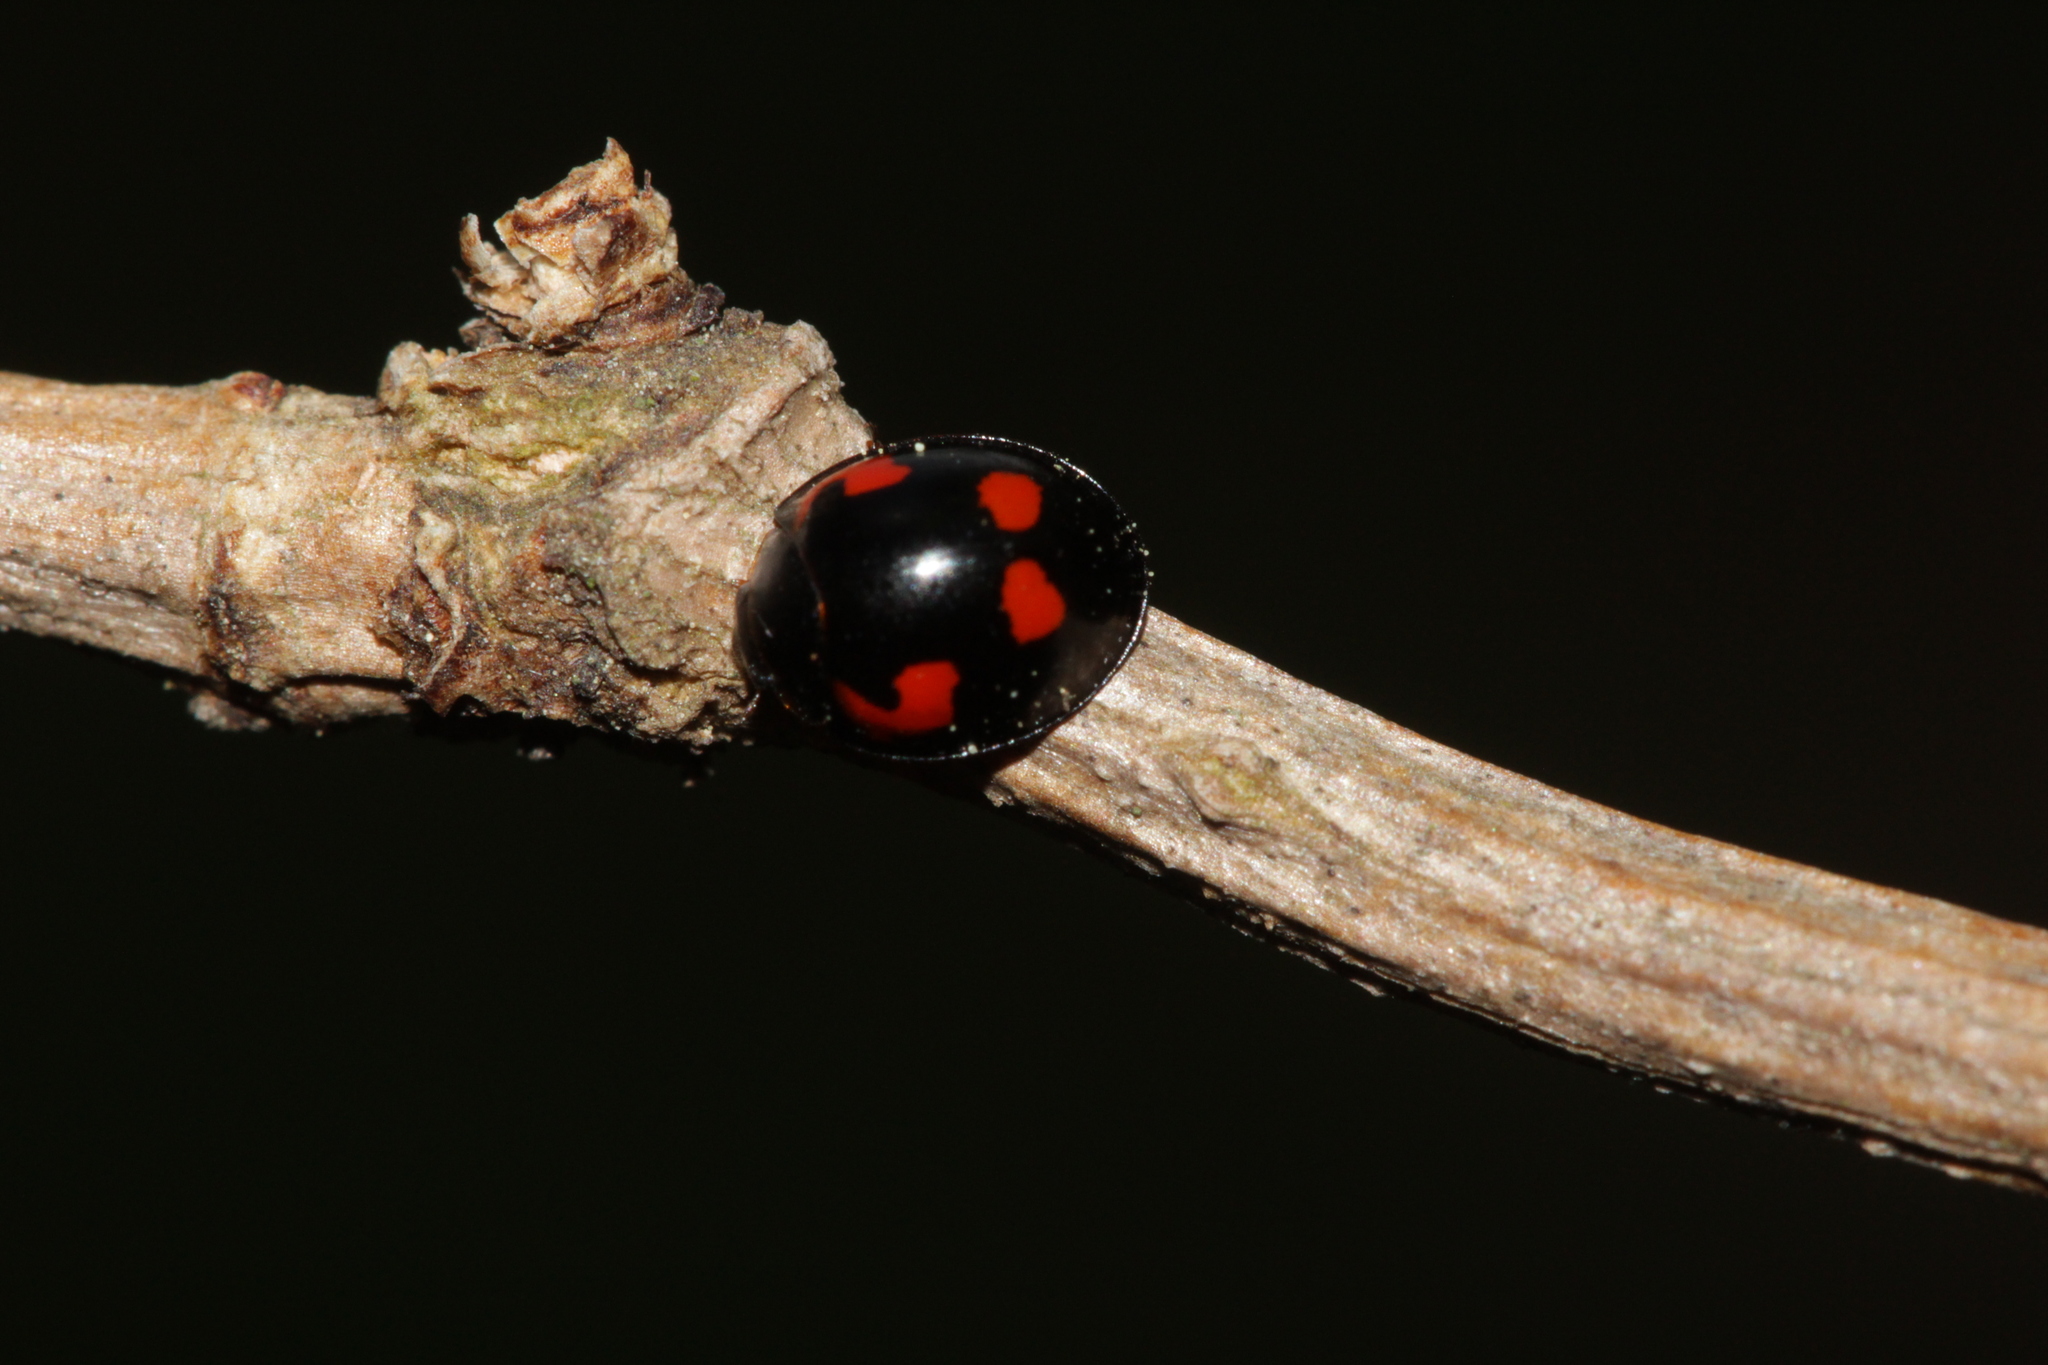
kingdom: Animalia
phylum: Arthropoda
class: Insecta
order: Coleoptera
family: Coccinellidae
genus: Brumus
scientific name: Brumus quadripustulatus
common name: Ladybird beetle
